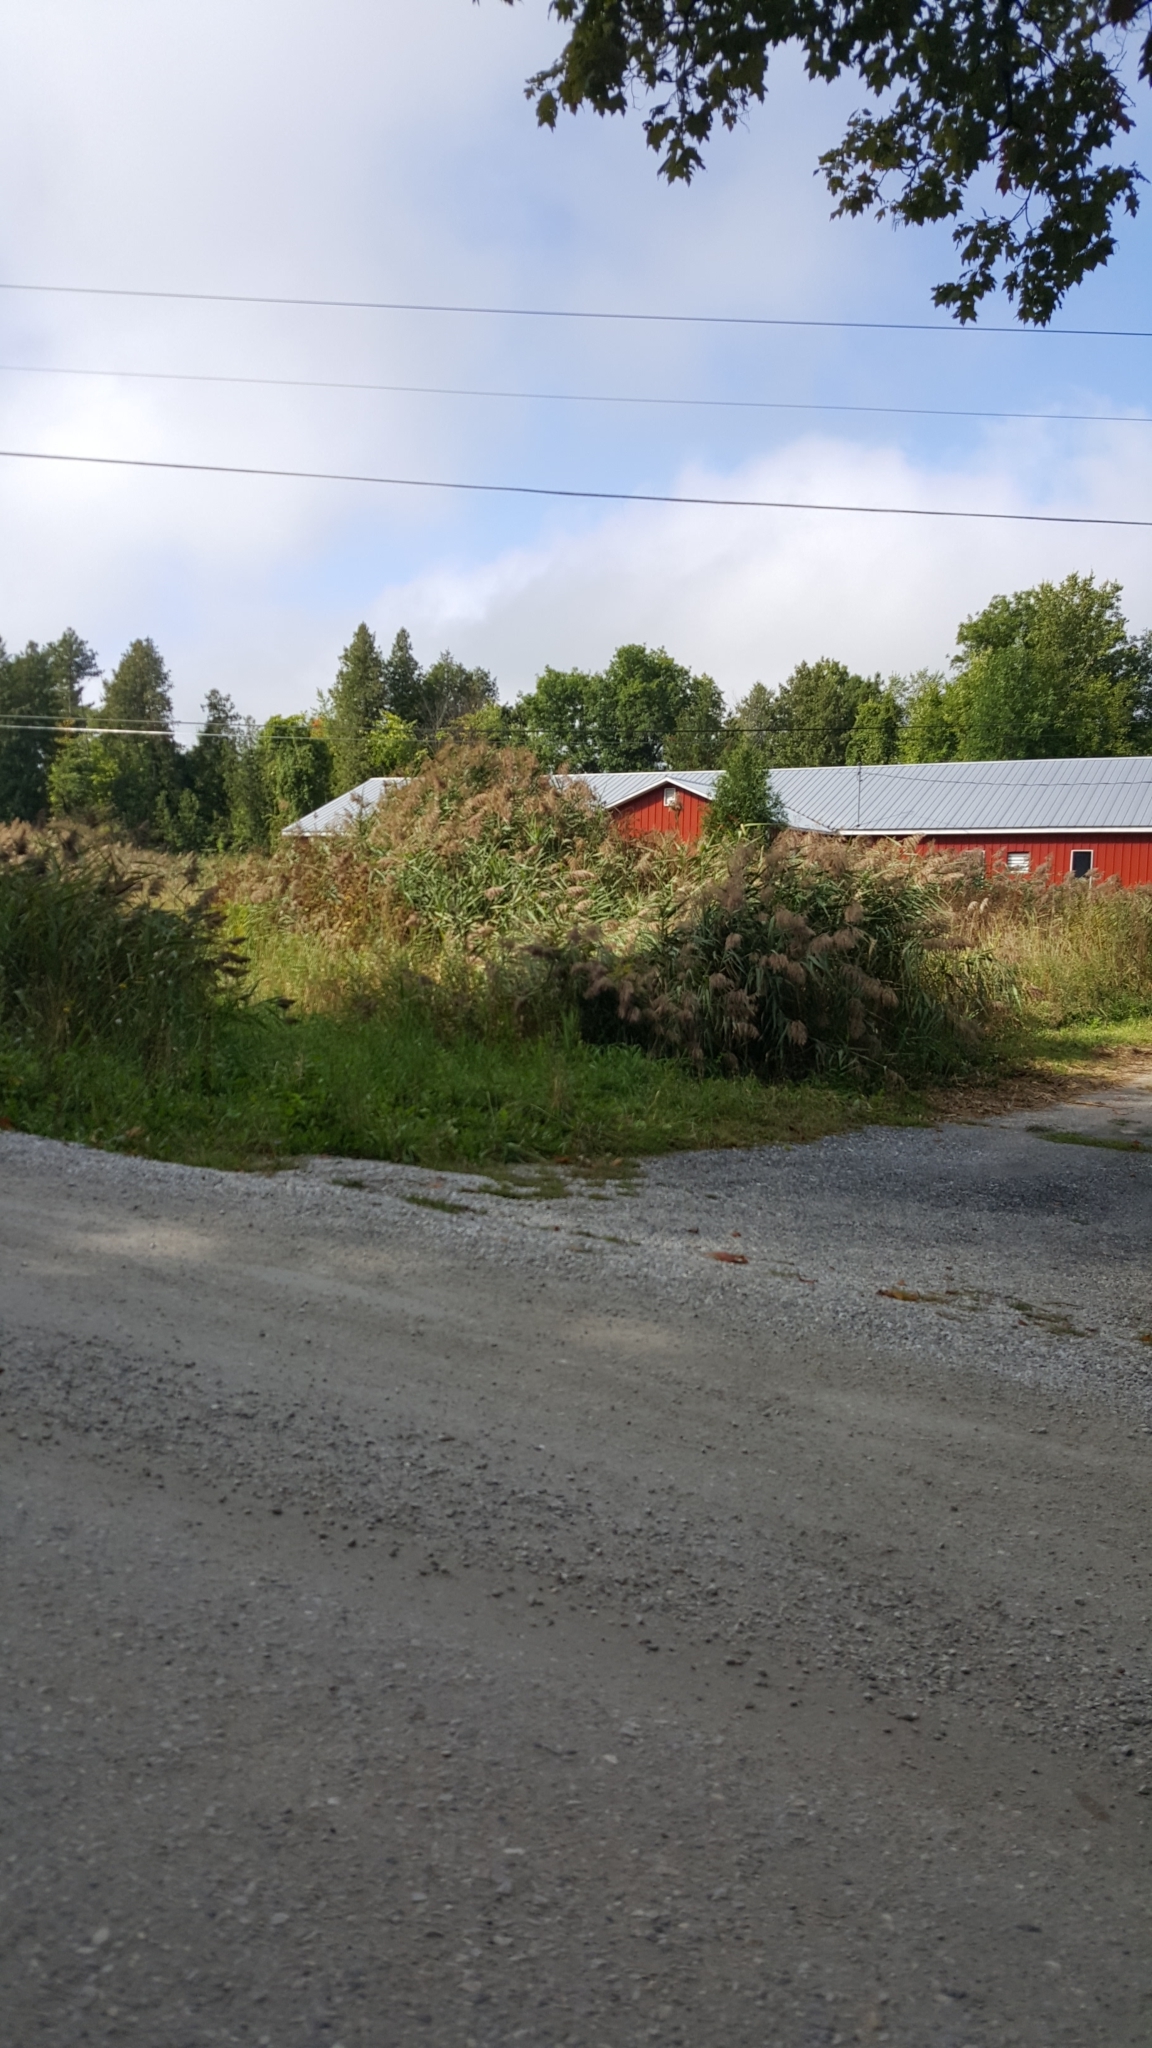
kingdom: Plantae
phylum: Tracheophyta
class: Liliopsida
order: Poales
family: Poaceae
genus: Phragmites
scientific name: Phragmites australis
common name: Common reed
